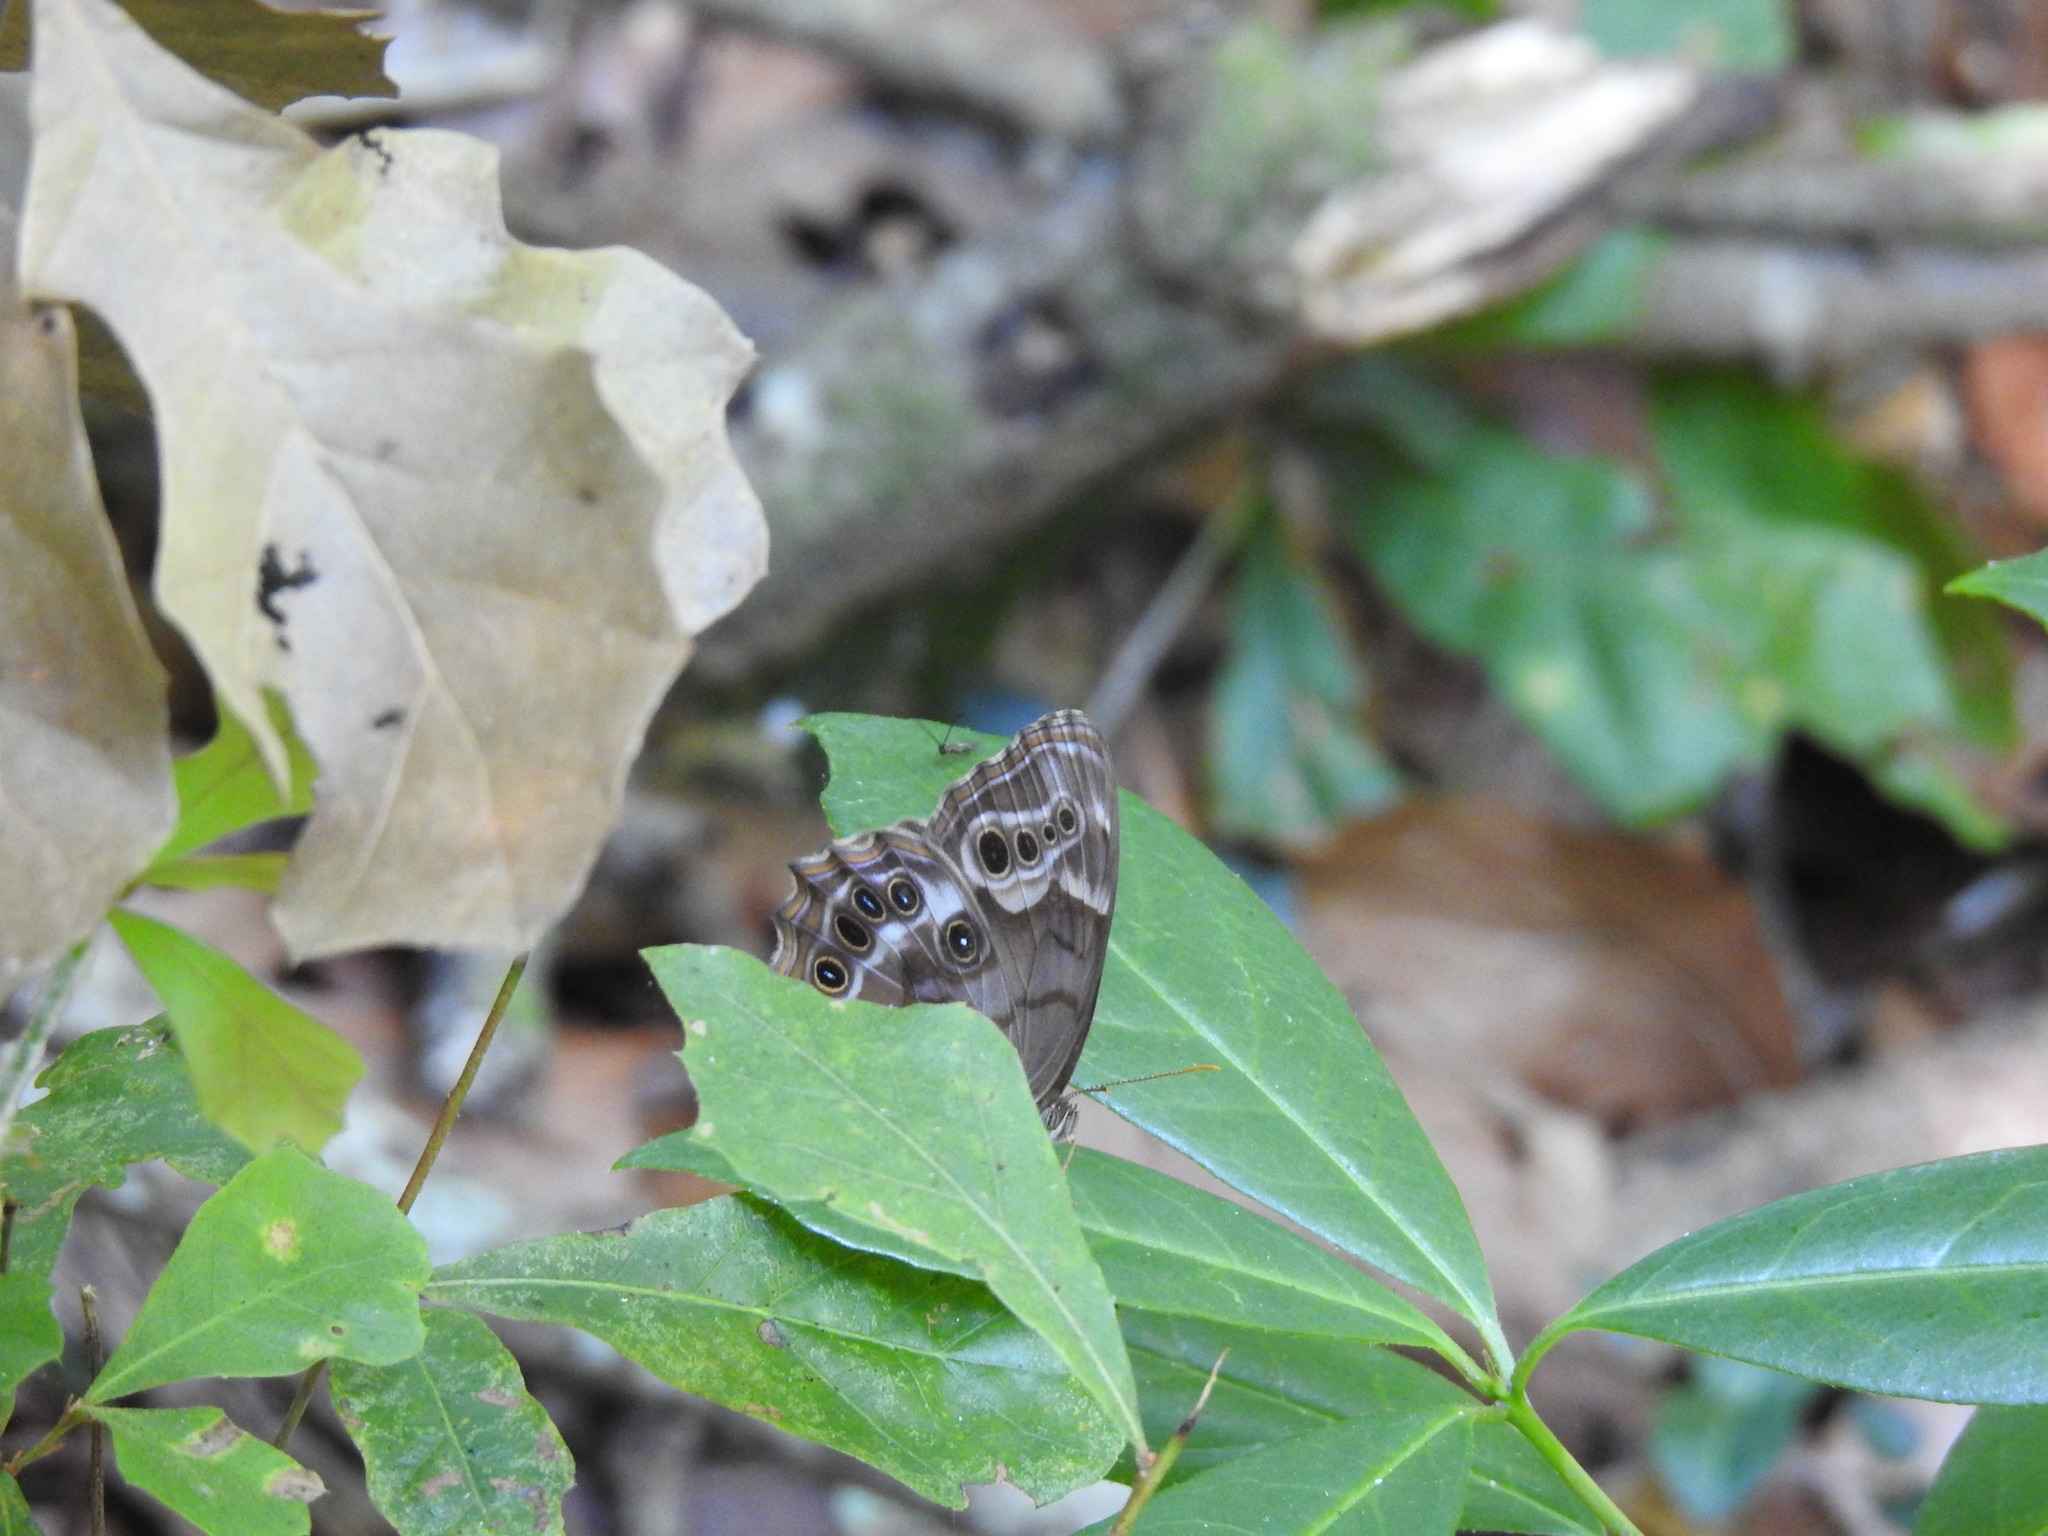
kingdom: Animalia
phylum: Arthropoda
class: Insecta
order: Lepidoptera
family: Nymphalidae
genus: Enodia
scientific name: Enodia portlandia
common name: Southern pearly-eye
